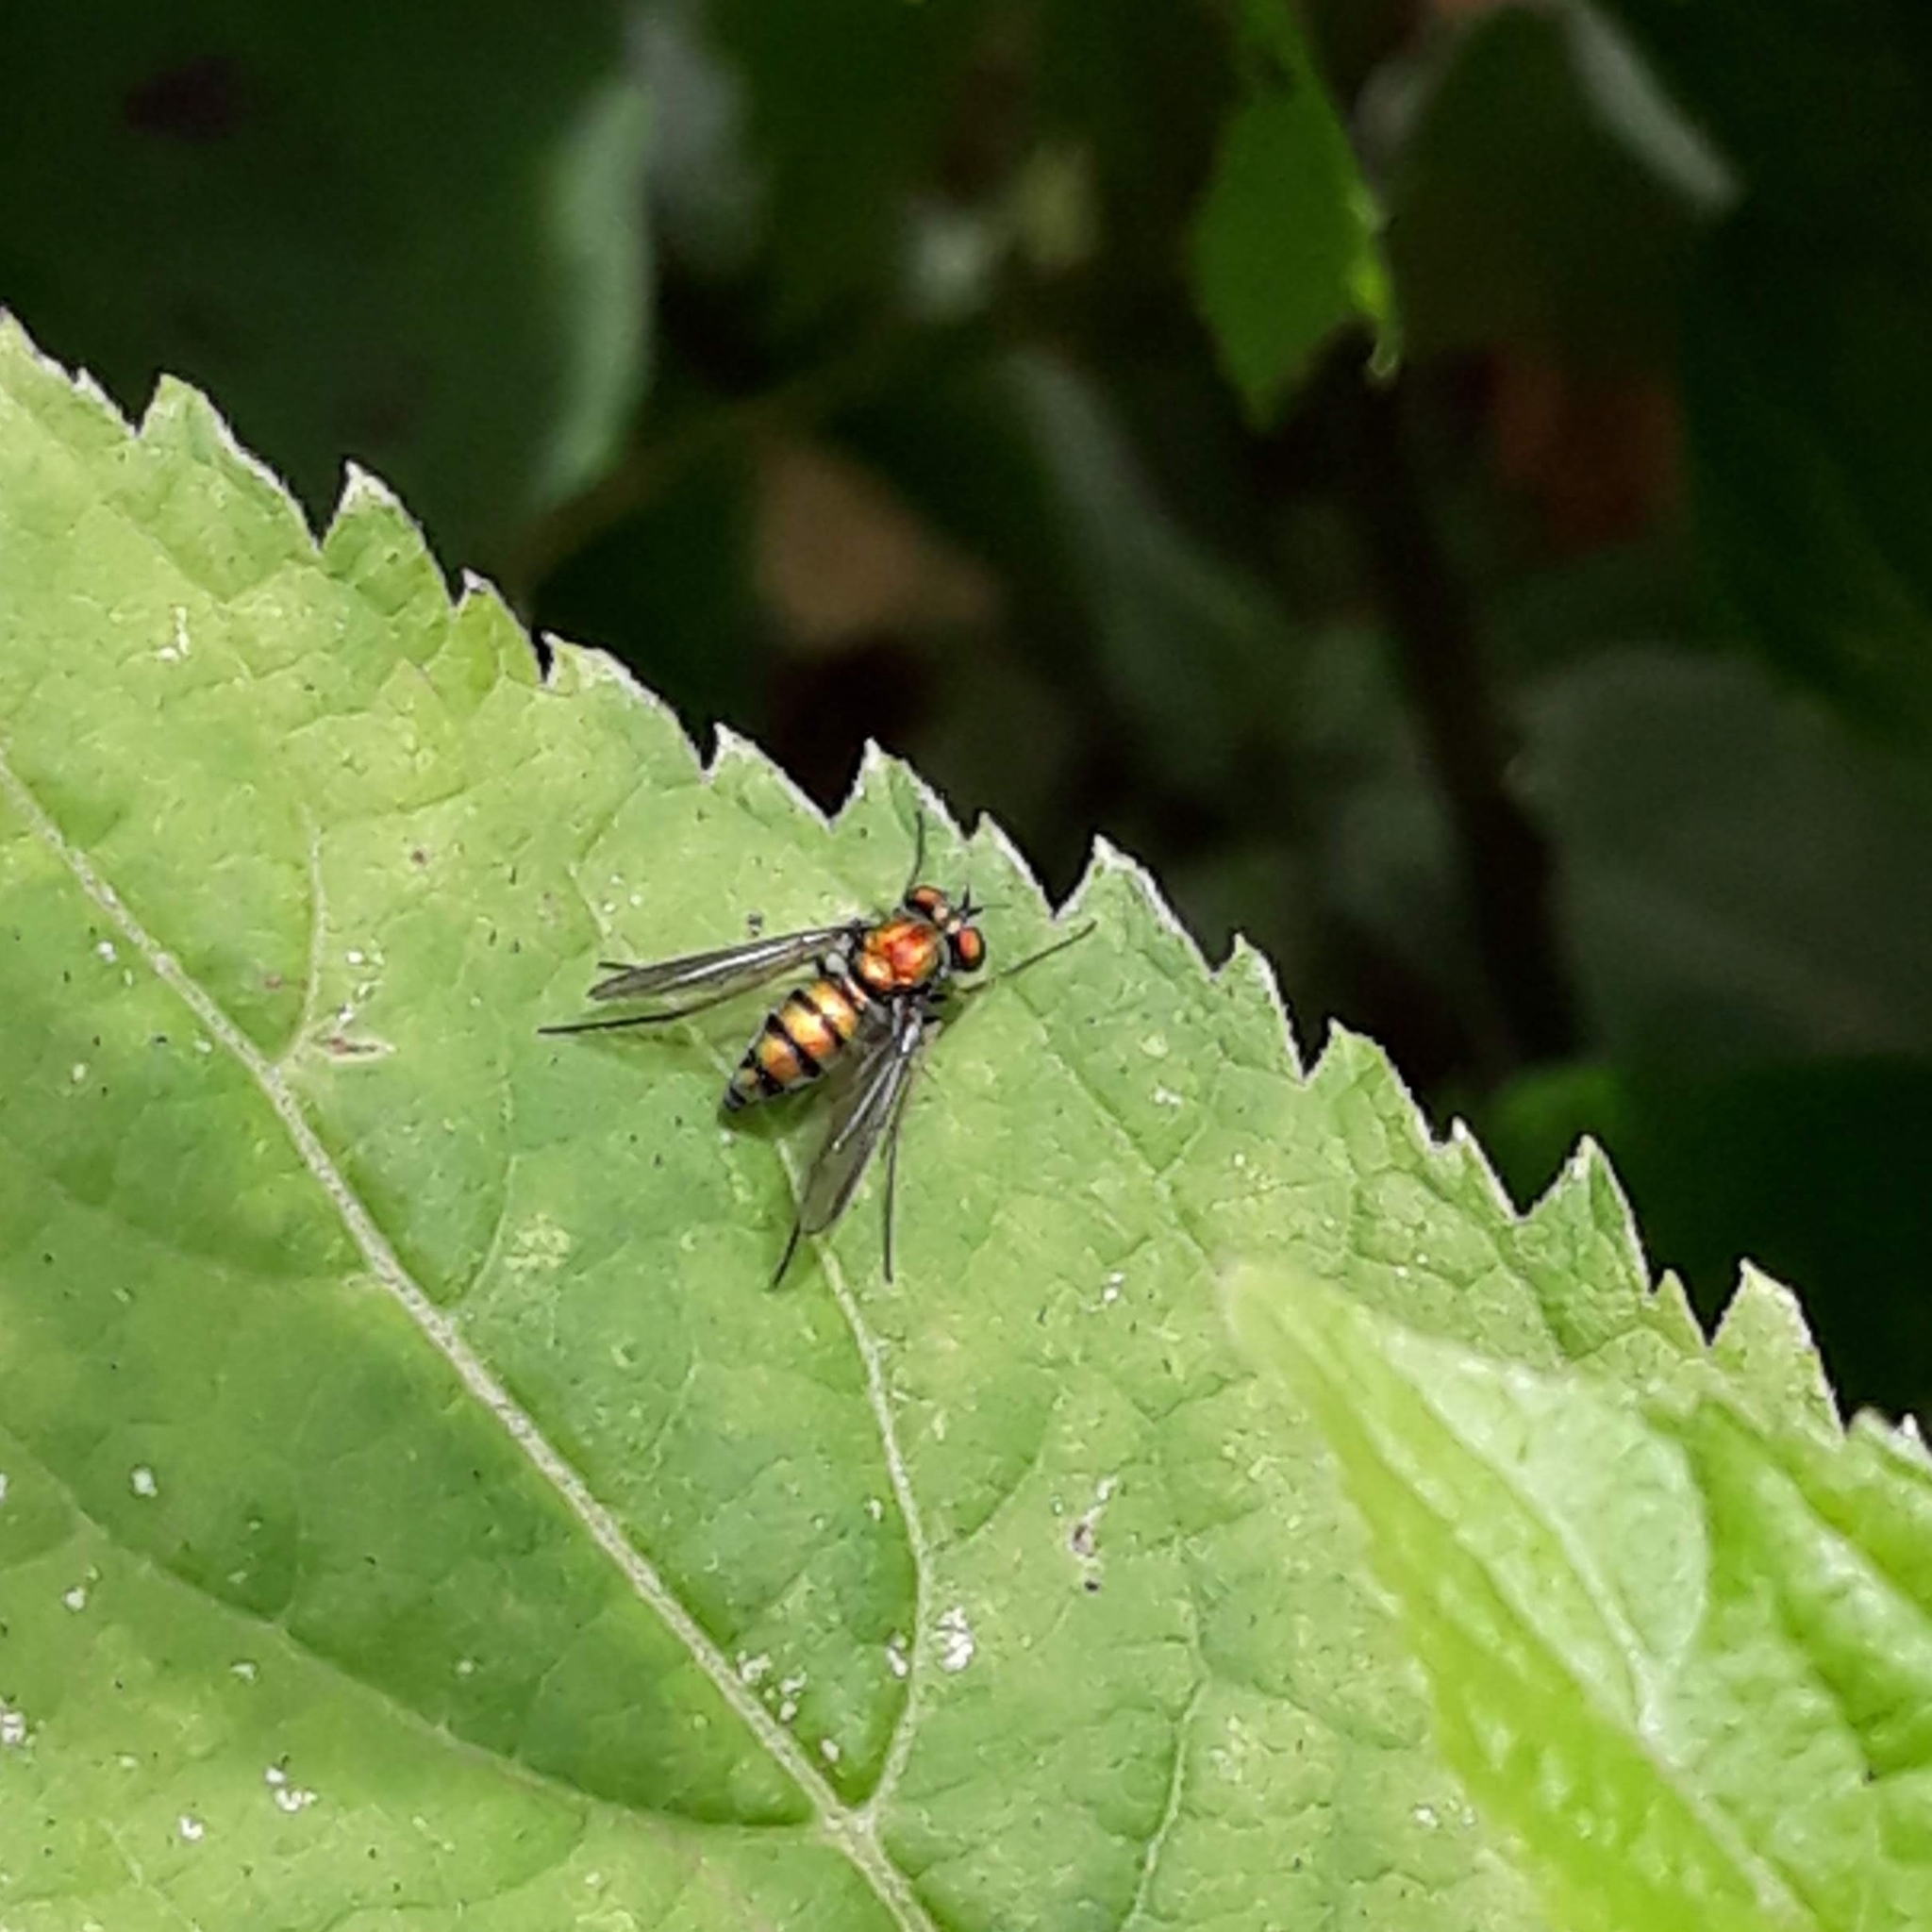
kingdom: Animalia
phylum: Arthropoda
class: Insecta
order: Diptera
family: Dolichopodidae
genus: Condylostylus
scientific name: Condylostylus
